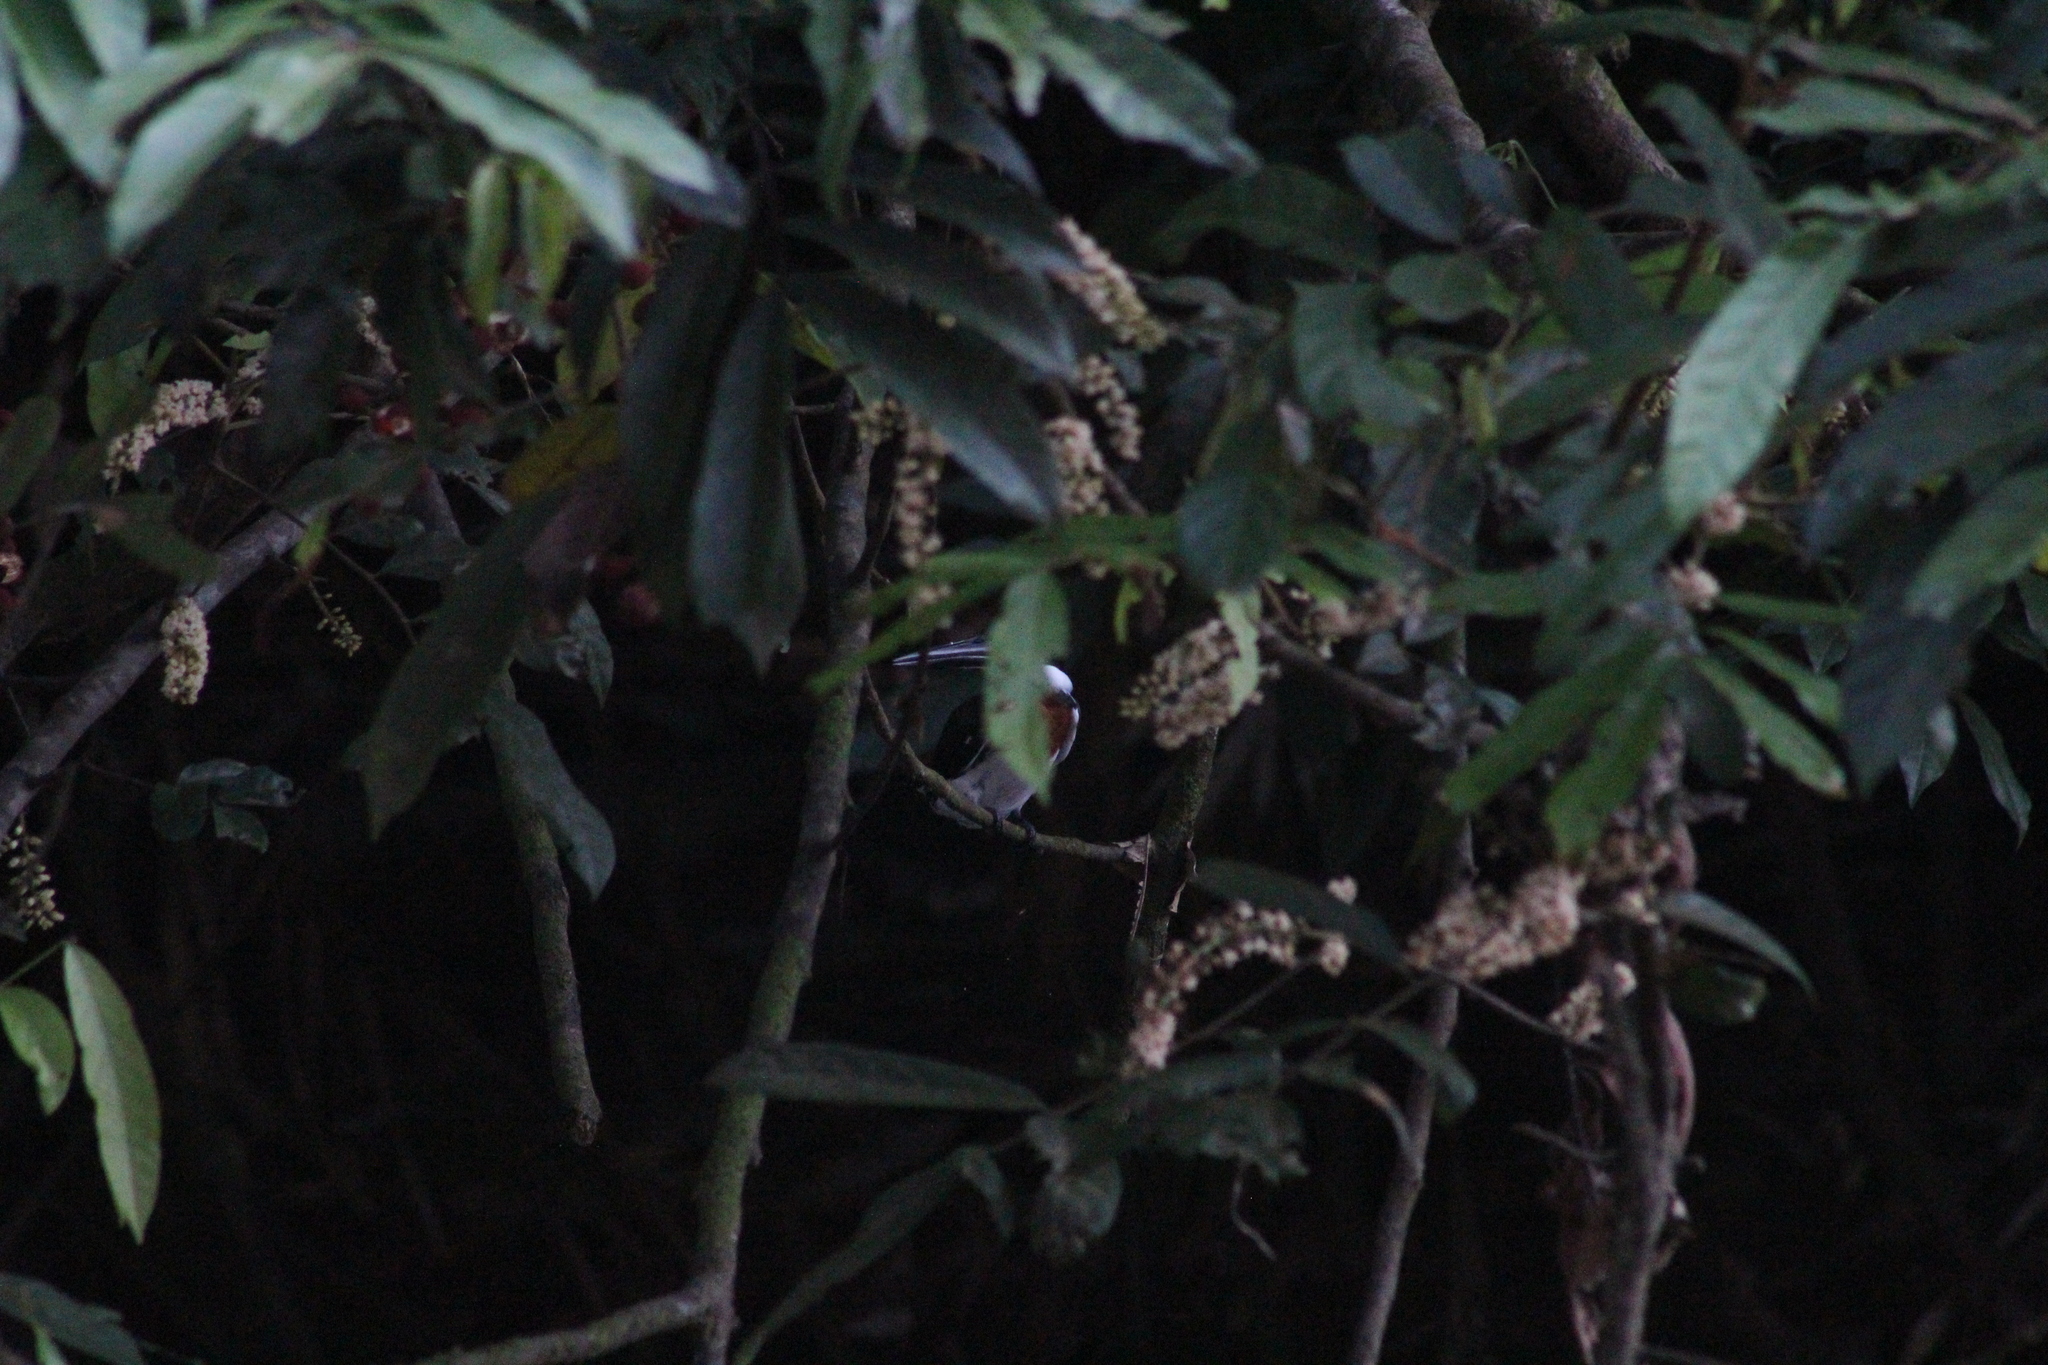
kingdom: Animalia
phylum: Chordata
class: Aves
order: Coraciiformes
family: Alcedinidae
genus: Chloroceryle
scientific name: Chloroceryle amazona
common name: Amazon kingfisher
